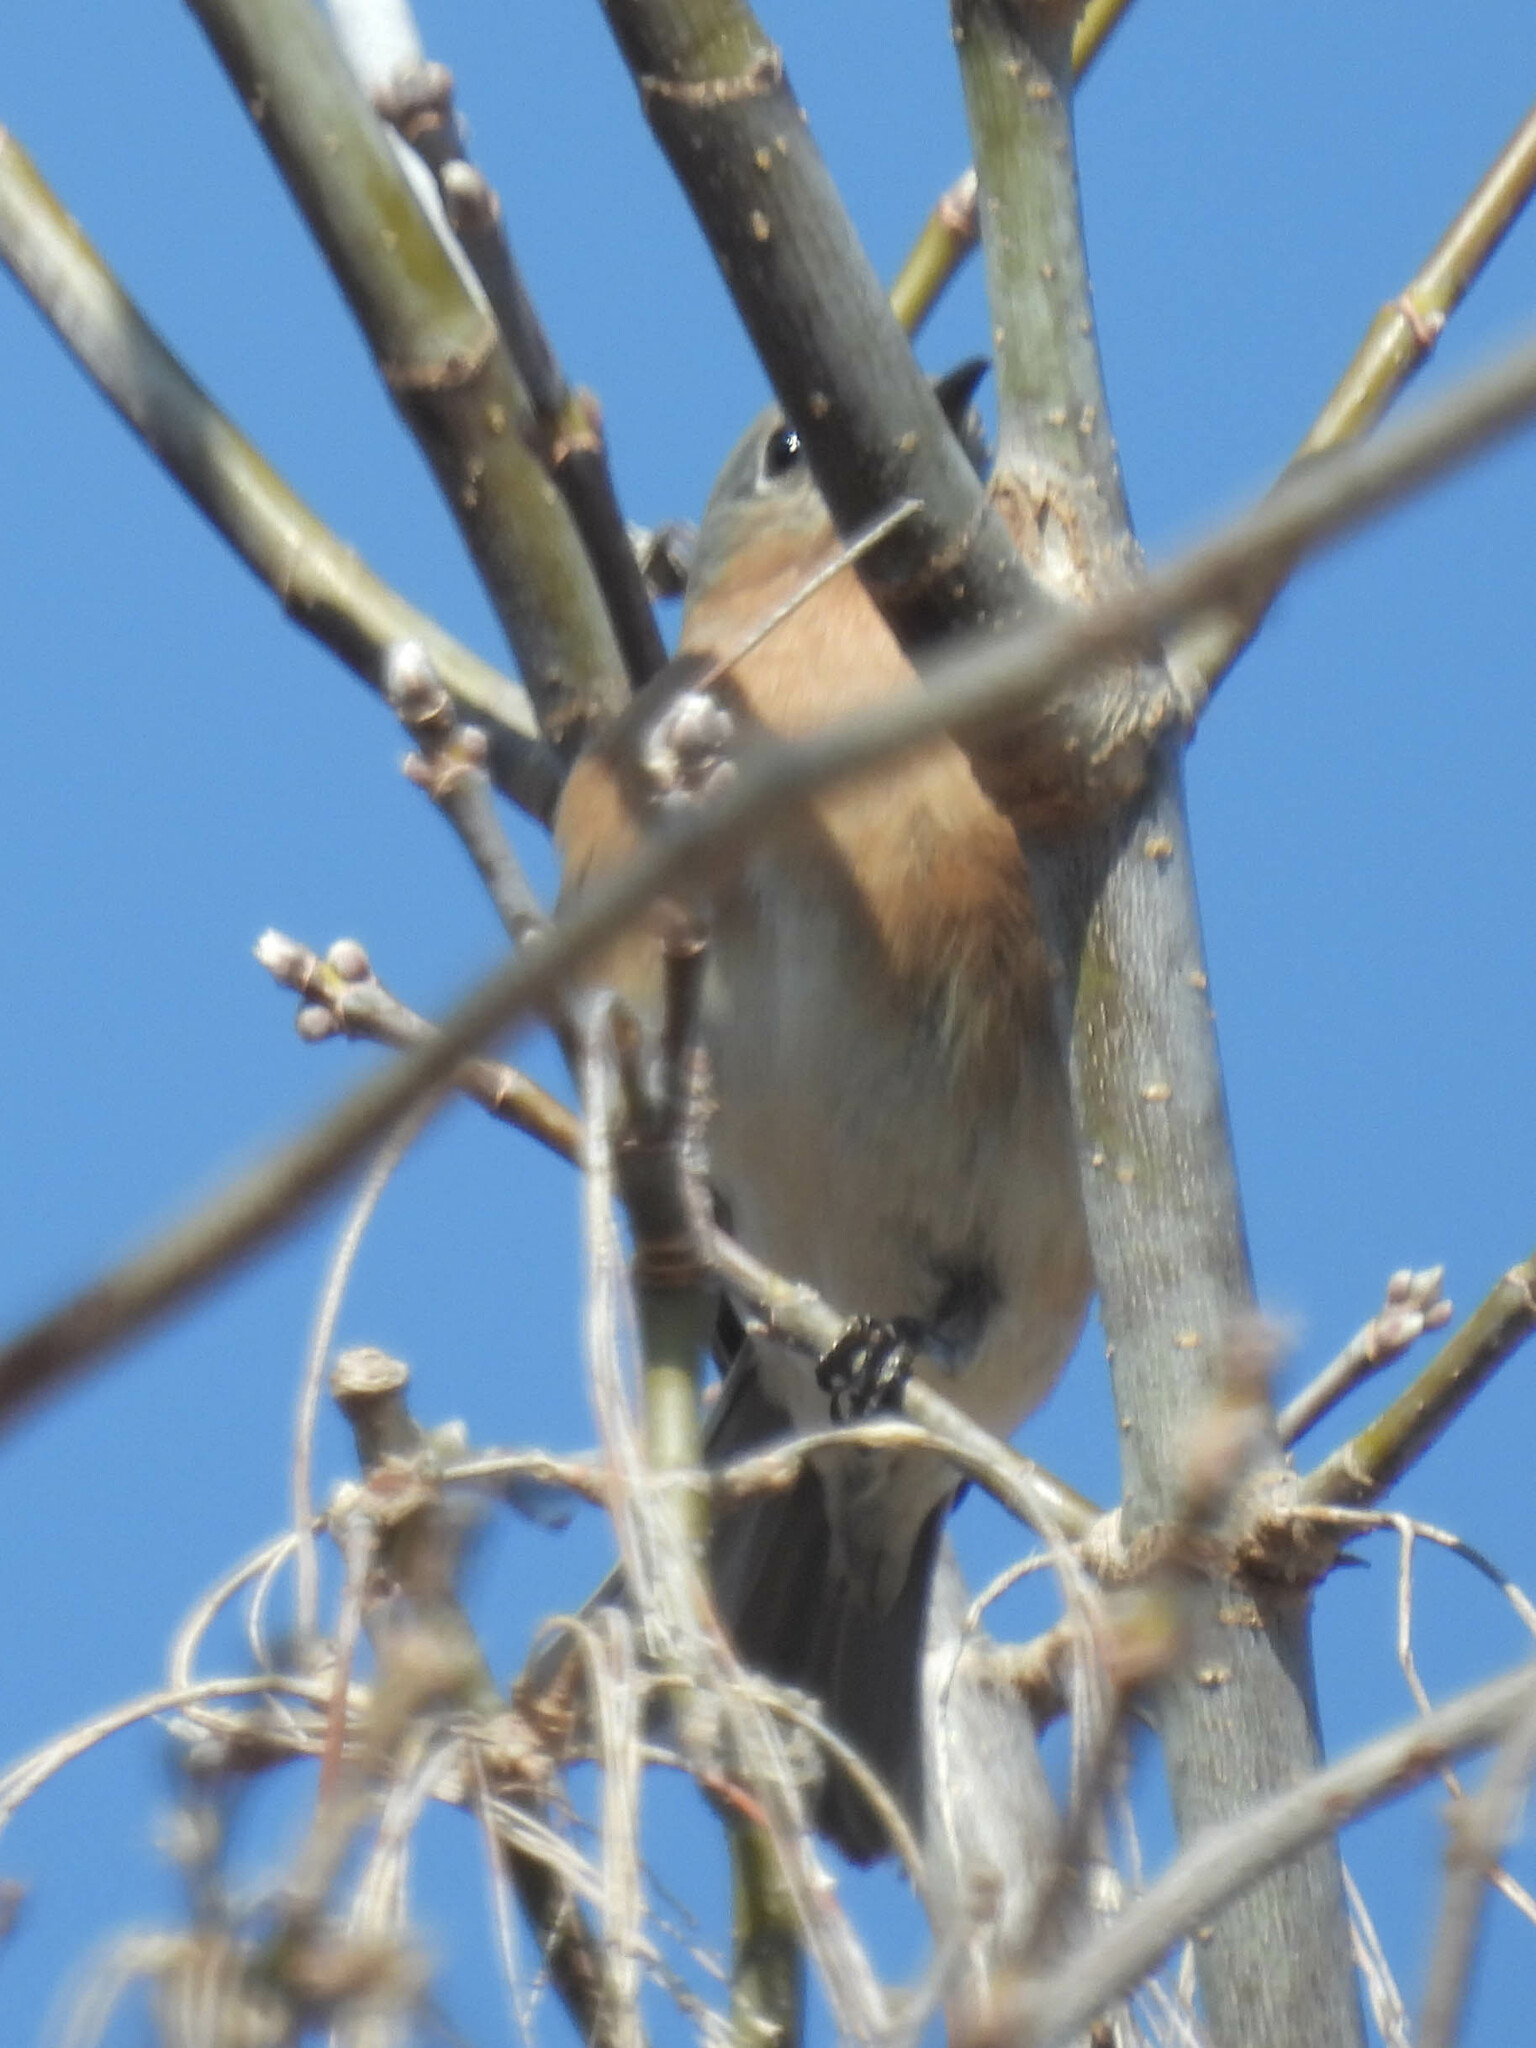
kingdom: Animalia
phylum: Chordata
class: Aves
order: Passeriformes
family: Turdidae
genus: Sialia
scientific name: Sialia sialis
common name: Eastern bluebird
